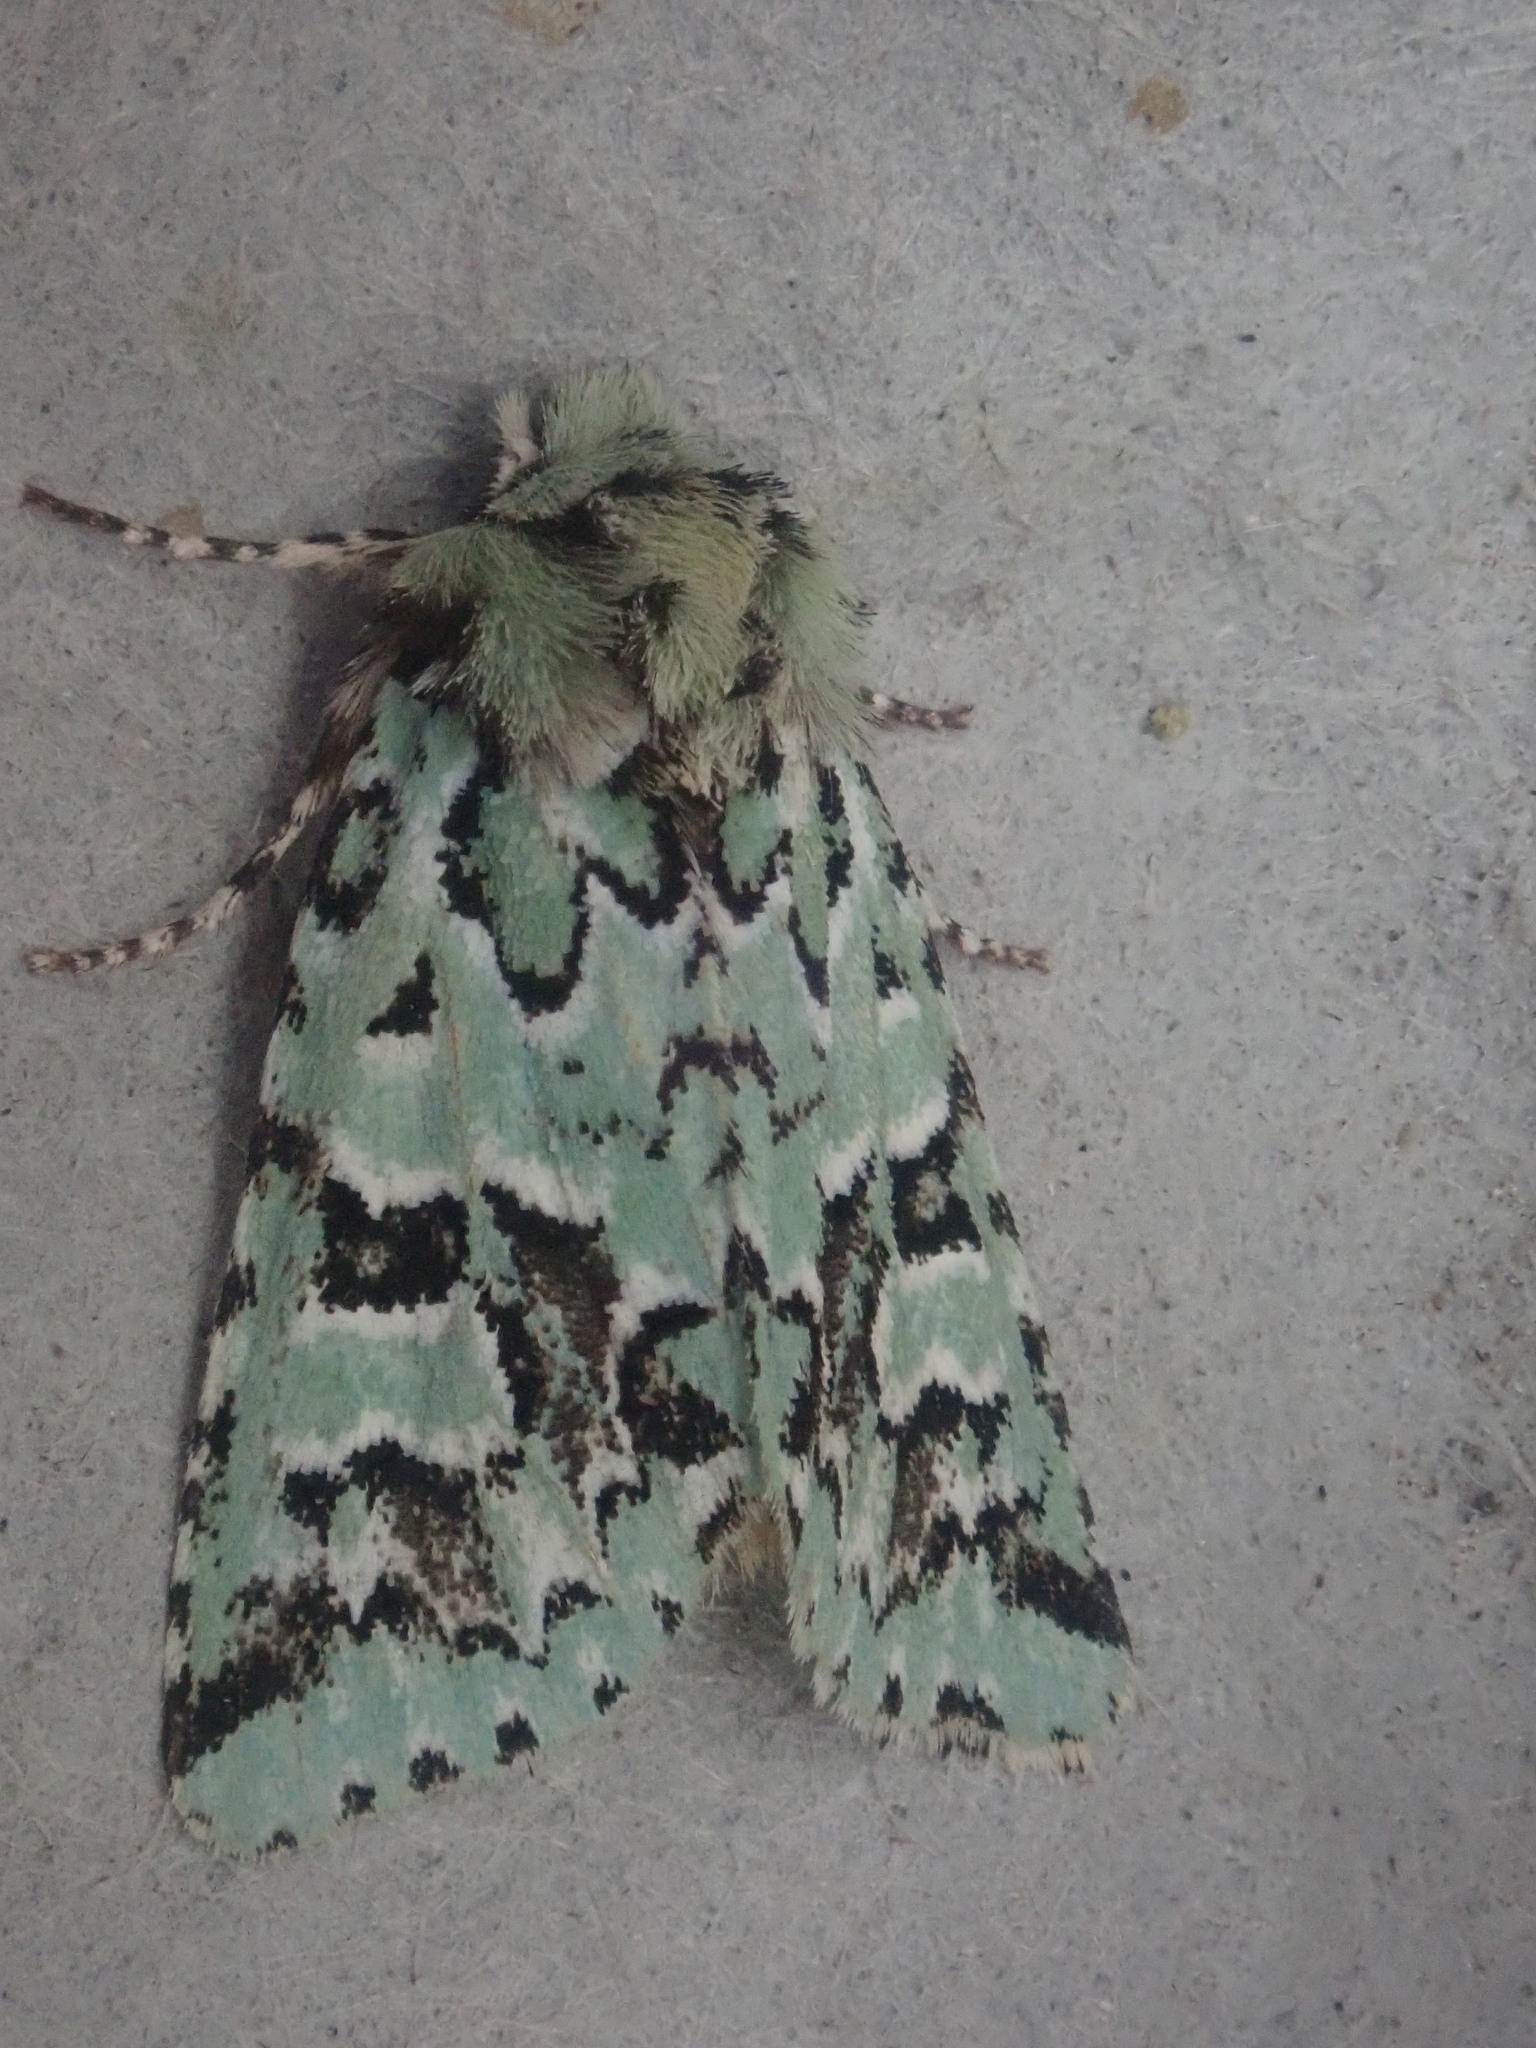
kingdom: Animalia
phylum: Arthropoda
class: Insecta
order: Lepidoptera
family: Noctuidae
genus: Feralia
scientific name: Feralia comstocki
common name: Comstock's sallow
